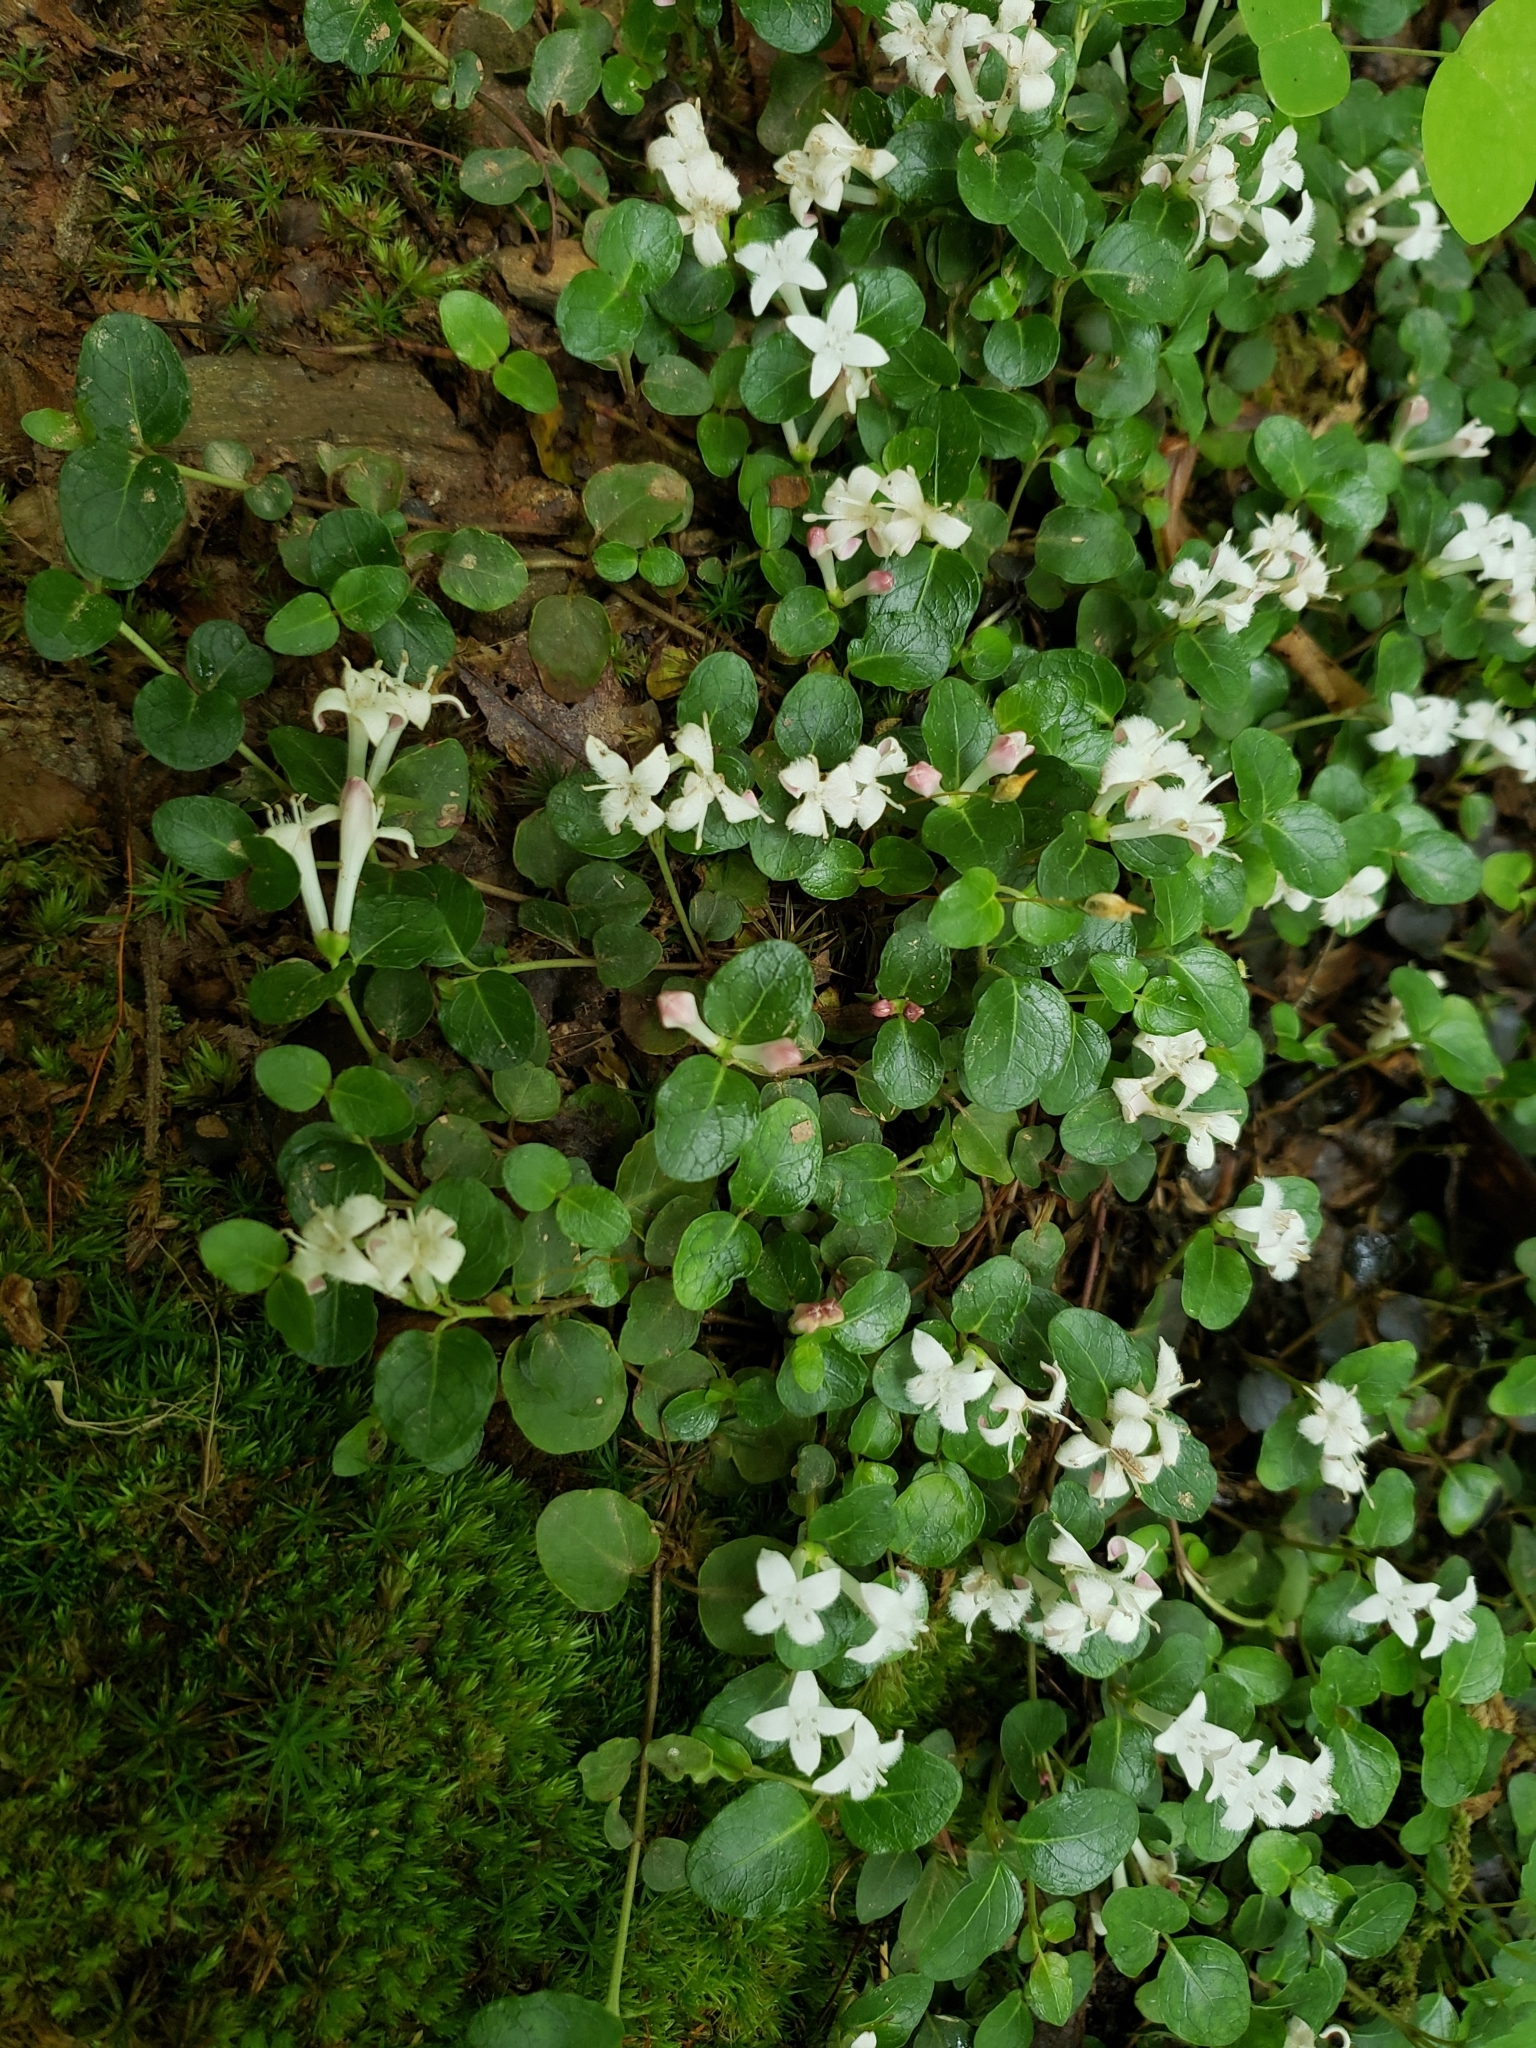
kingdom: Plantae
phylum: Tracheophyta
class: Magnoliopsida
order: Gentianales
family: Rubiaceae
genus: Mitchella
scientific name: Mitchella repens
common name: Partridge-berry
